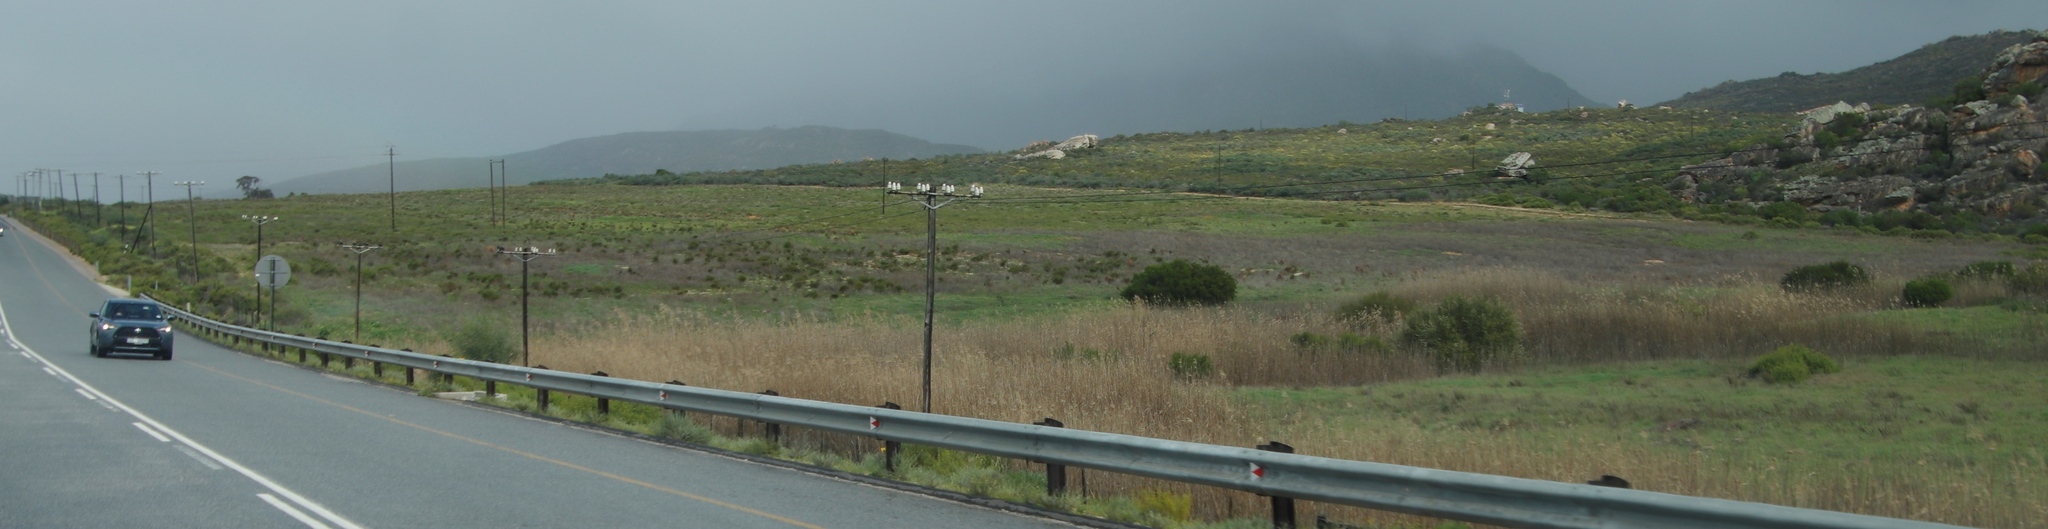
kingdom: Plantae
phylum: Tracheophyta
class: Liliopsida
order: Poales
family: Poaceae
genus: Phragmites
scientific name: Phragmites australis
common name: Common reed
